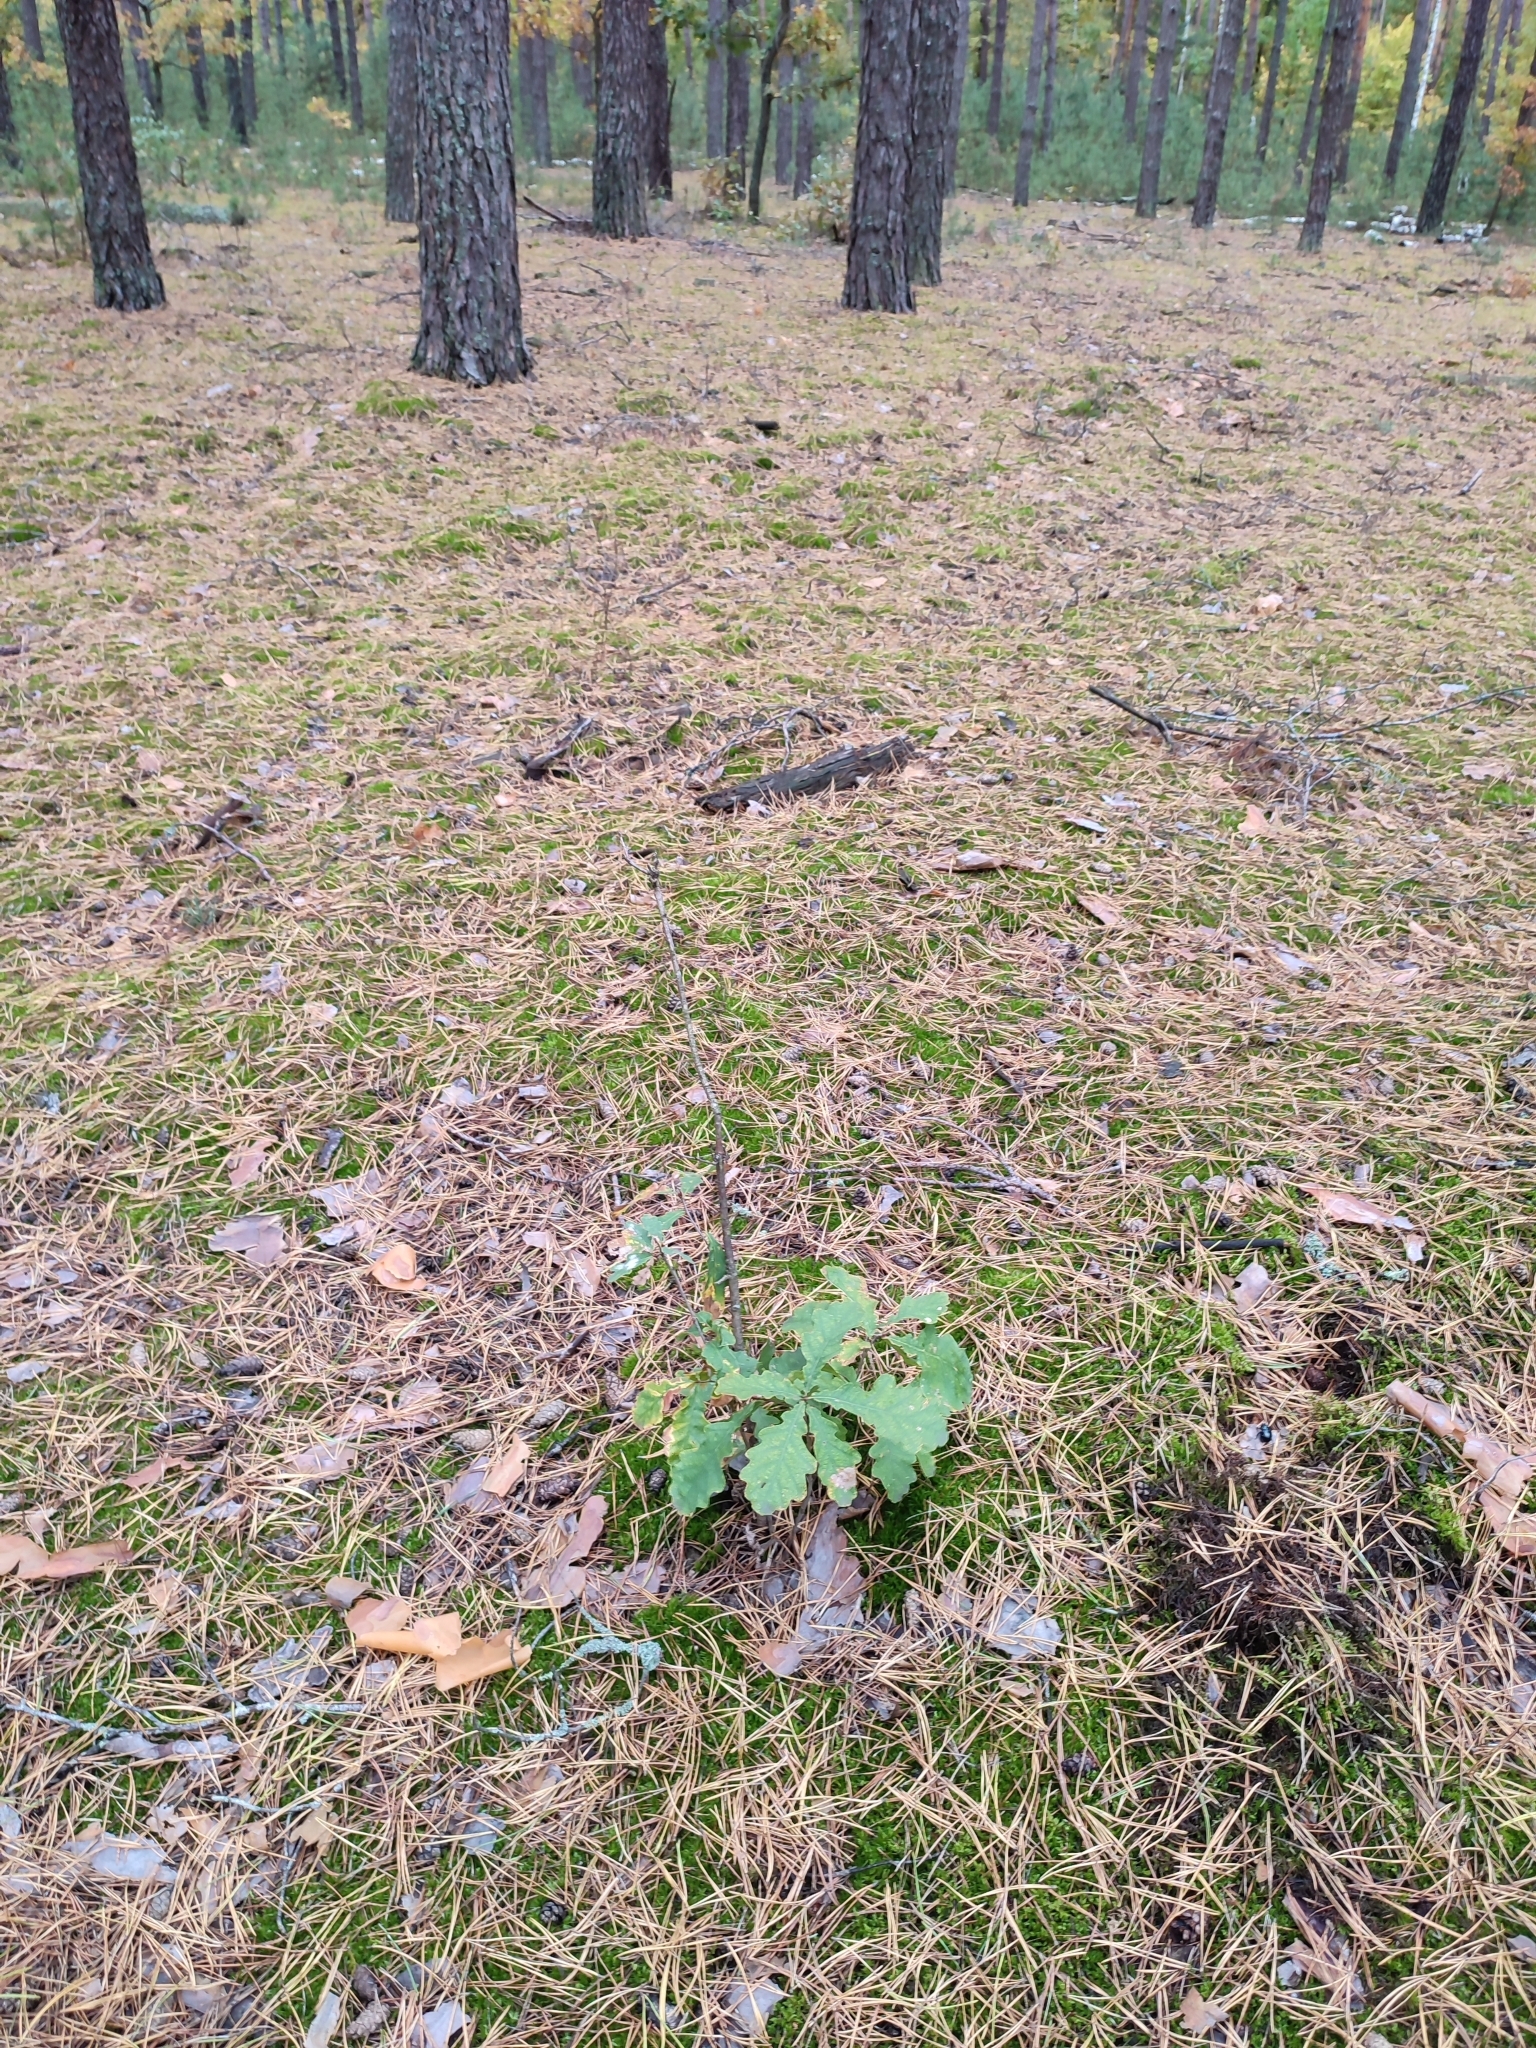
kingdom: Plantae
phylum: Tracheophyta
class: Magnoliopsida
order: Fagales
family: Fagaceae
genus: Quercus
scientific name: Quercus robur
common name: Pedunculate oak
